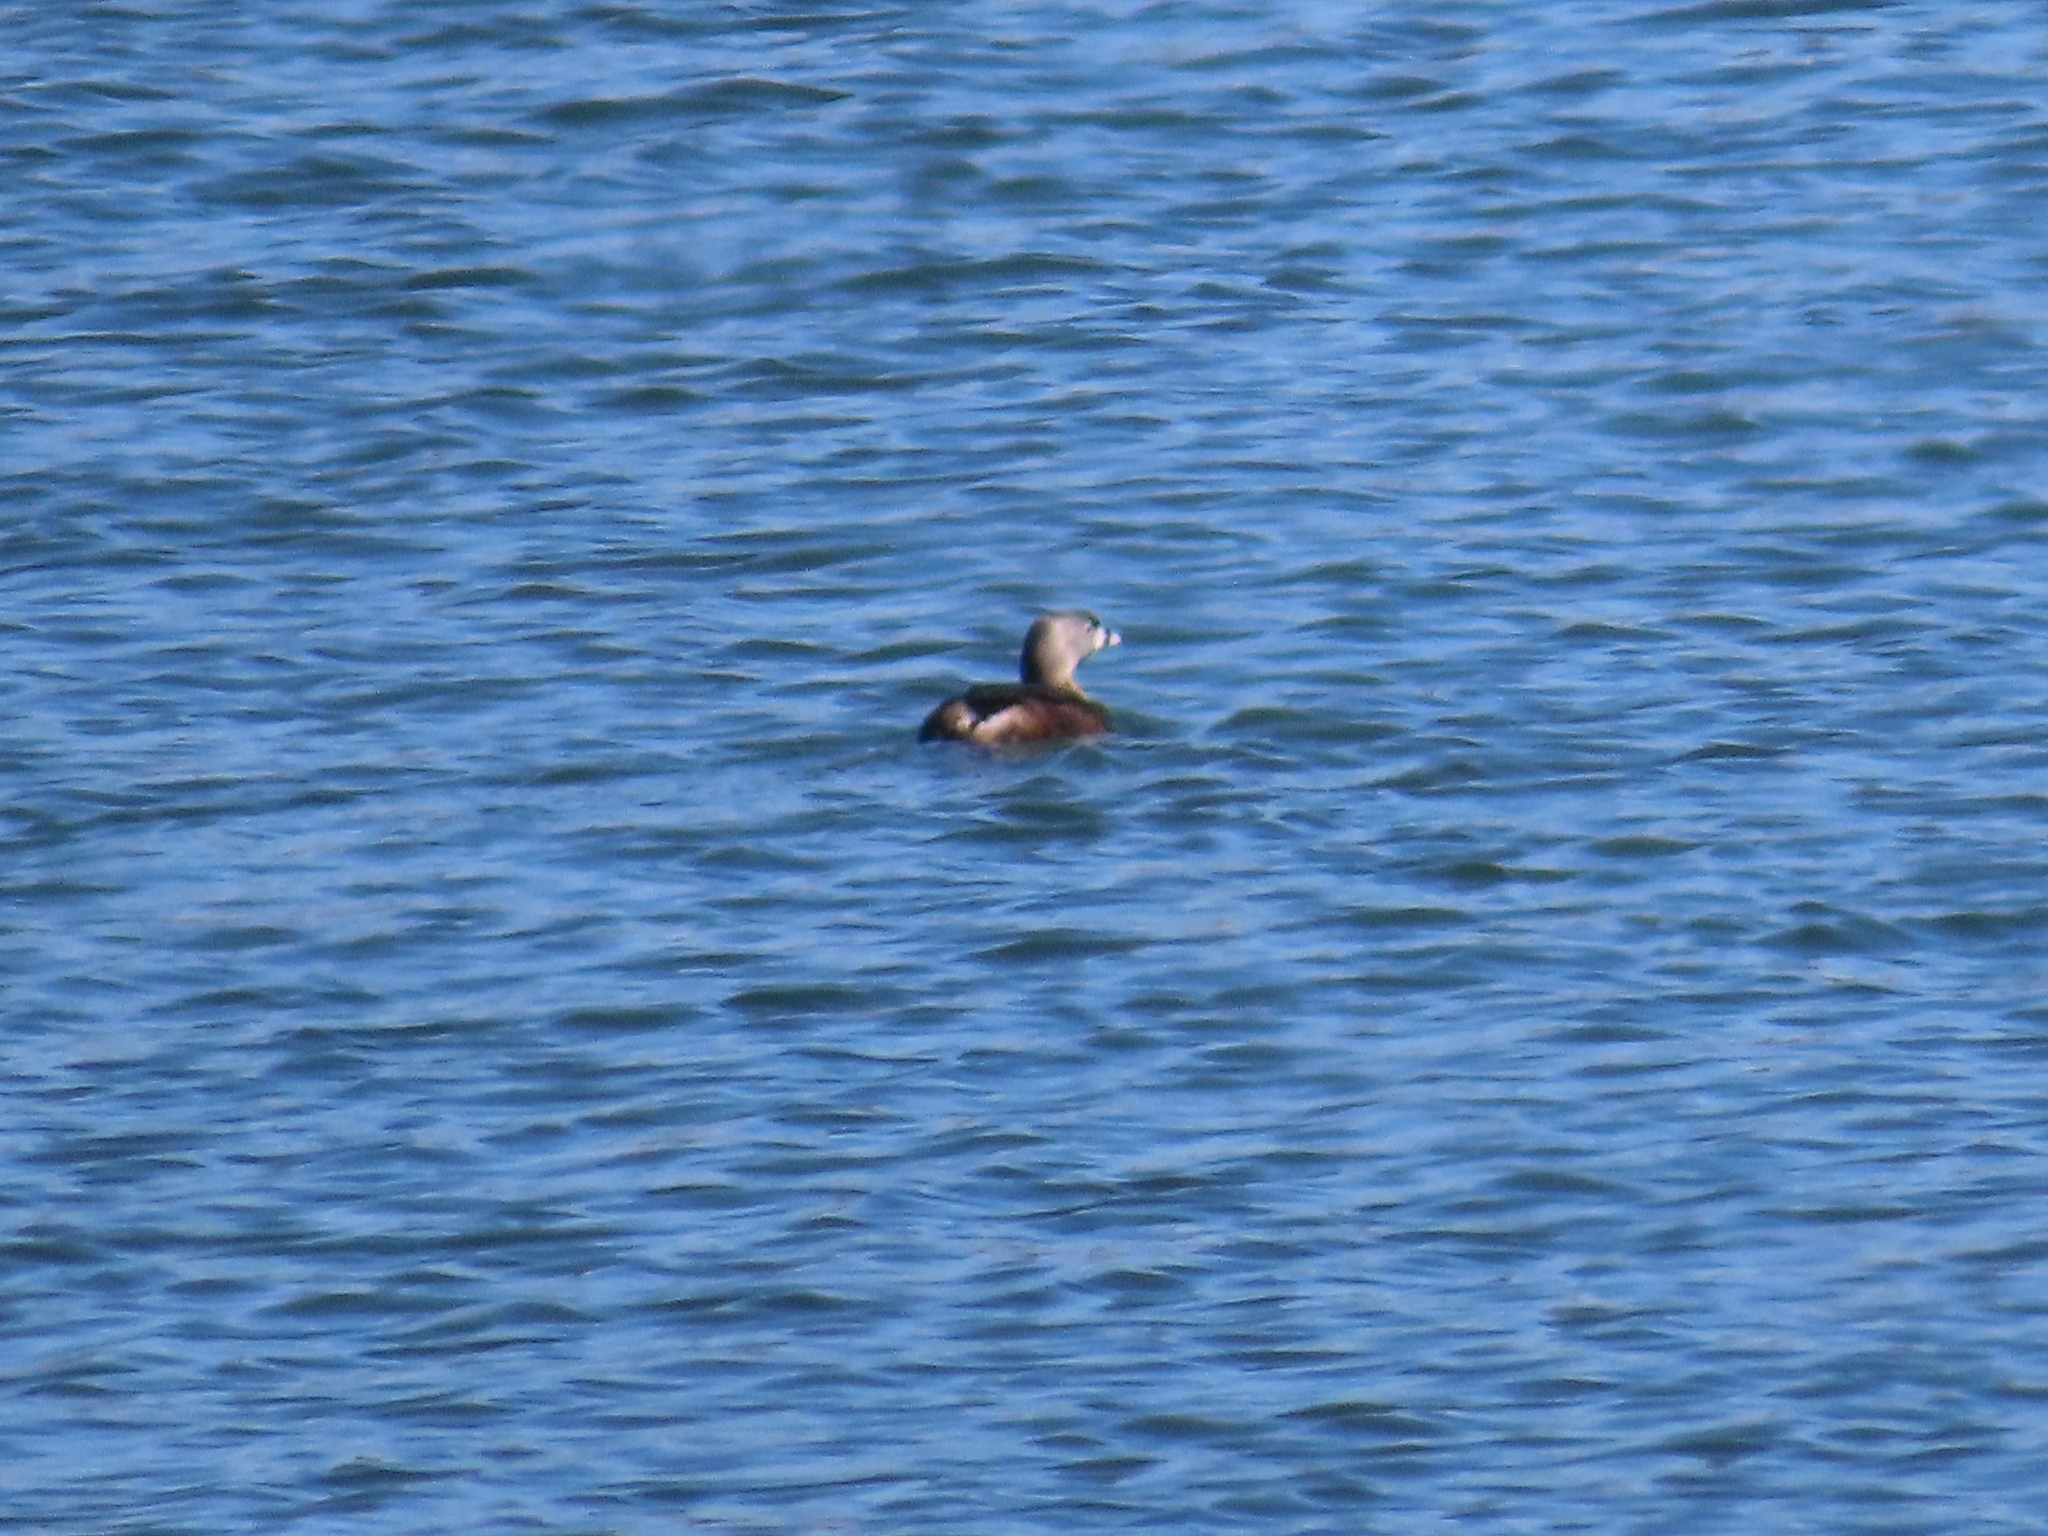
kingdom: Animalia
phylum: Chordata
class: Aves
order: Podicipediformes
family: Podicipedidae
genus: Podilymbus
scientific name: Podilymbus podiceps
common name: Pied-billed grebe
